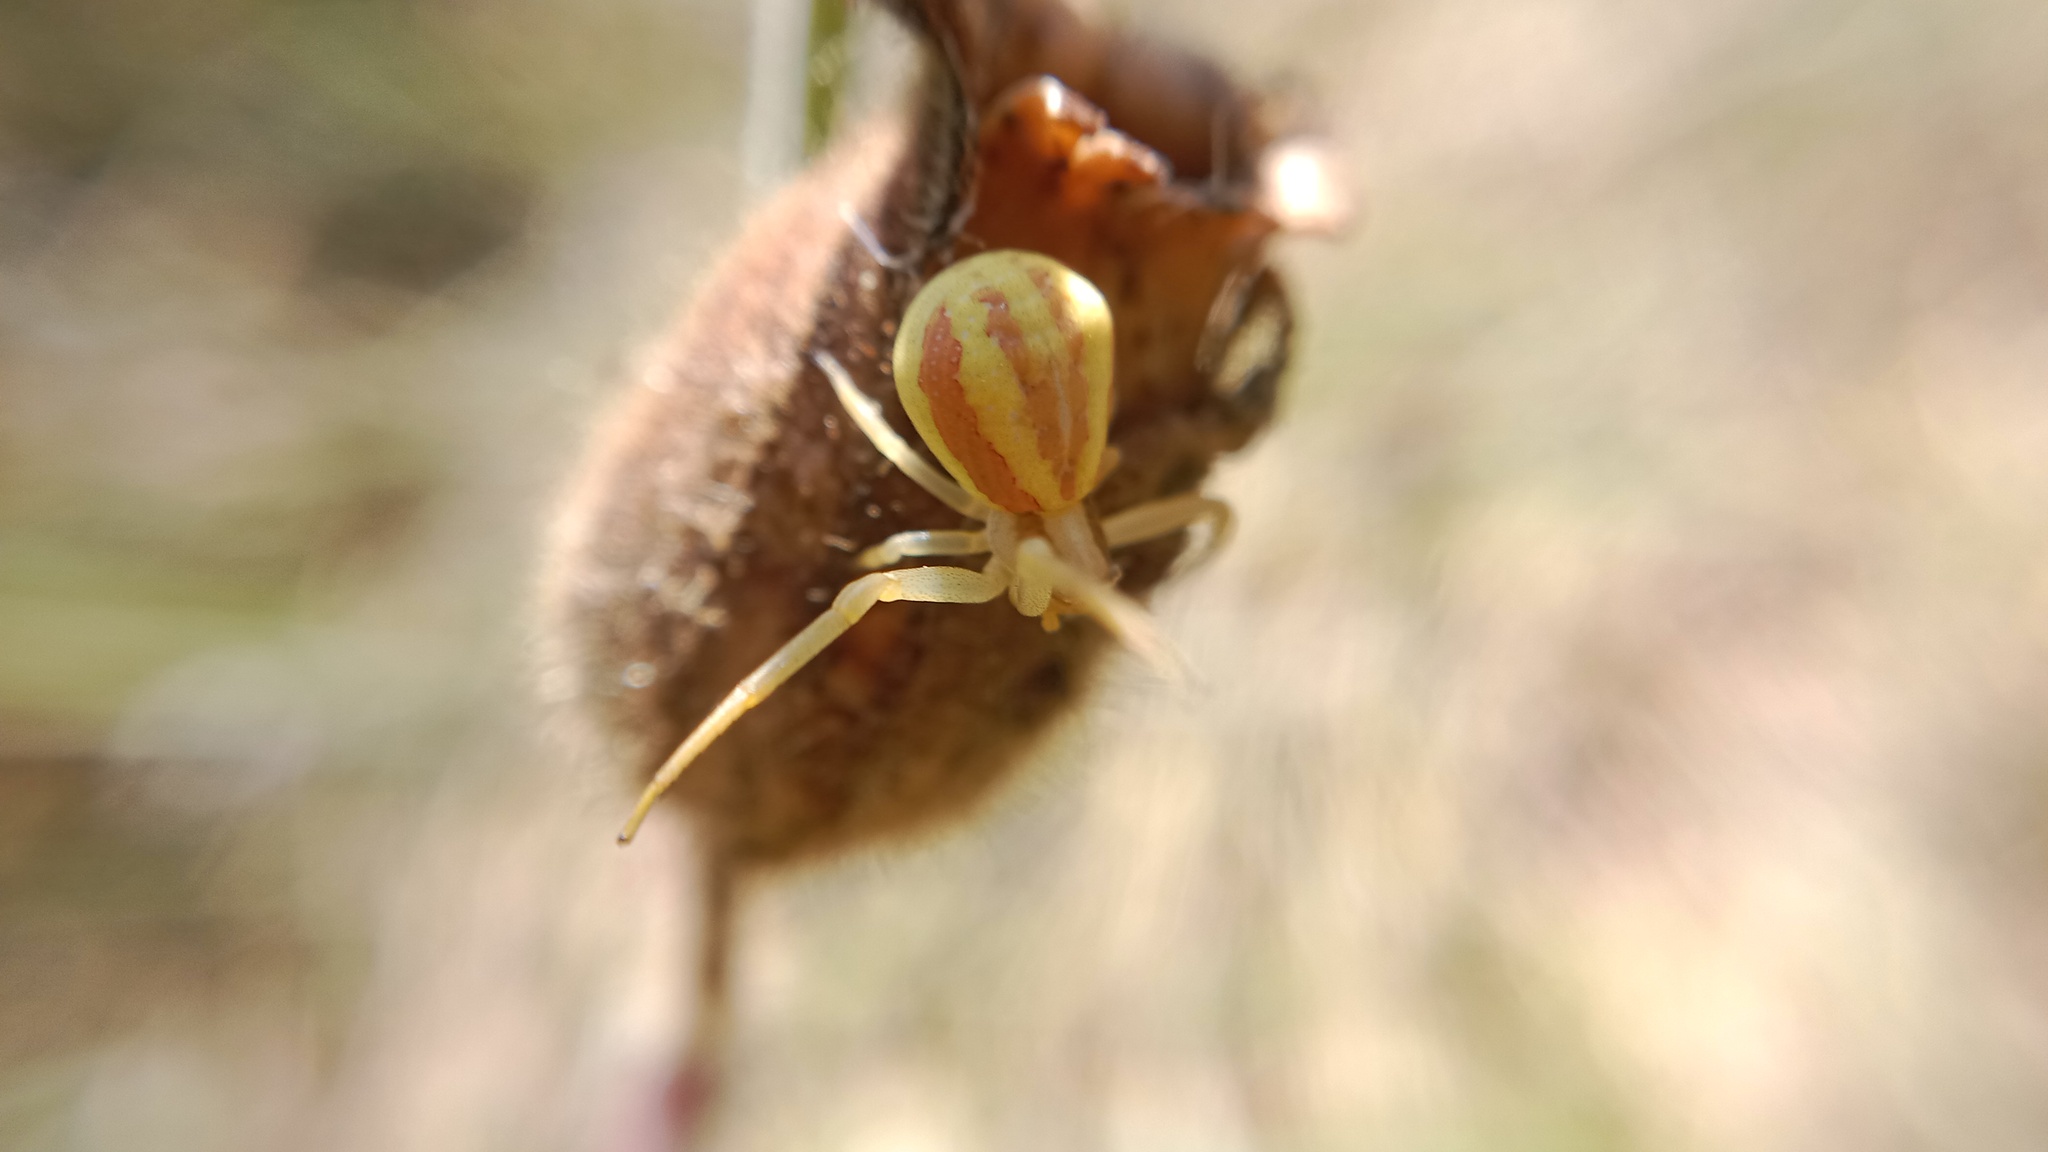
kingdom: Animalia
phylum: Arthropoda
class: Arachnida
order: Araneae
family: Thomisidae
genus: Runcinia
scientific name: Runcinia grammica
